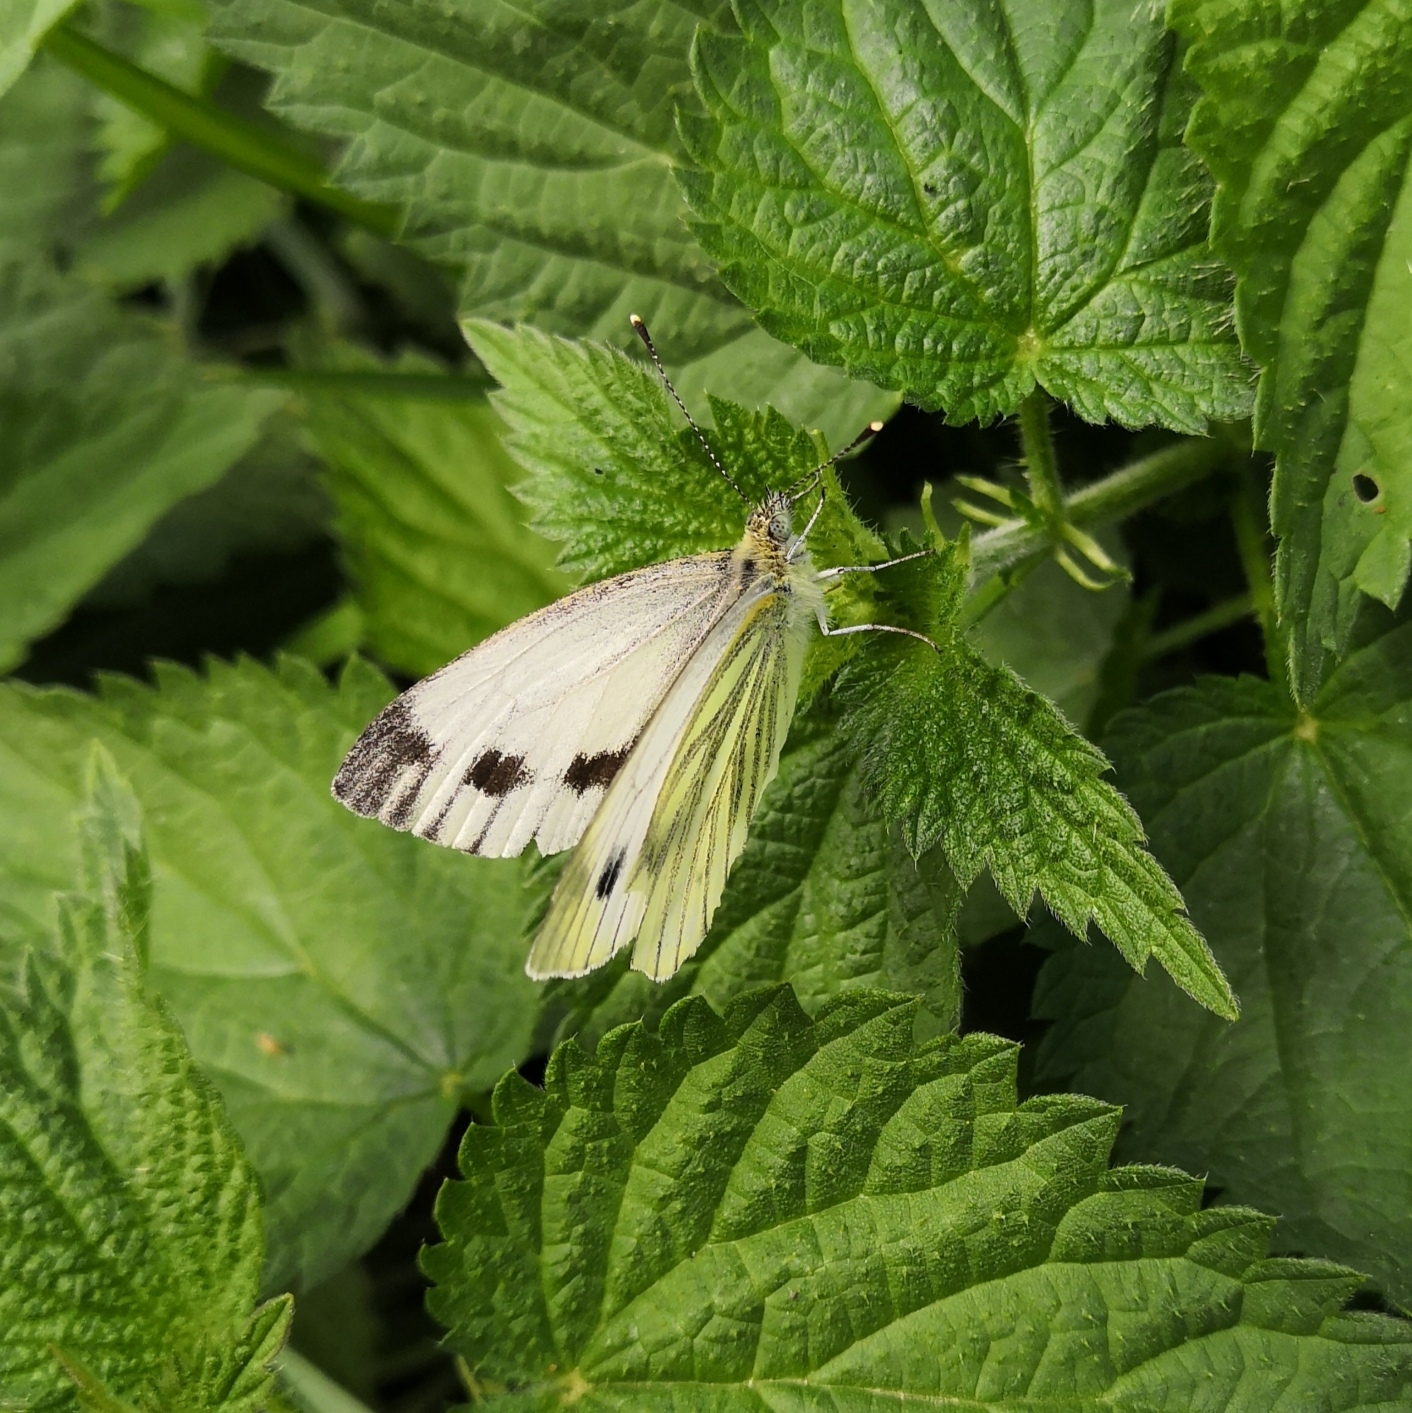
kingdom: Animalia
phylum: Arthropoda
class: Insecta
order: Lepidoptera
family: Pieridae
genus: Pieris
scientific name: Pieris napi
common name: Green-veined white
